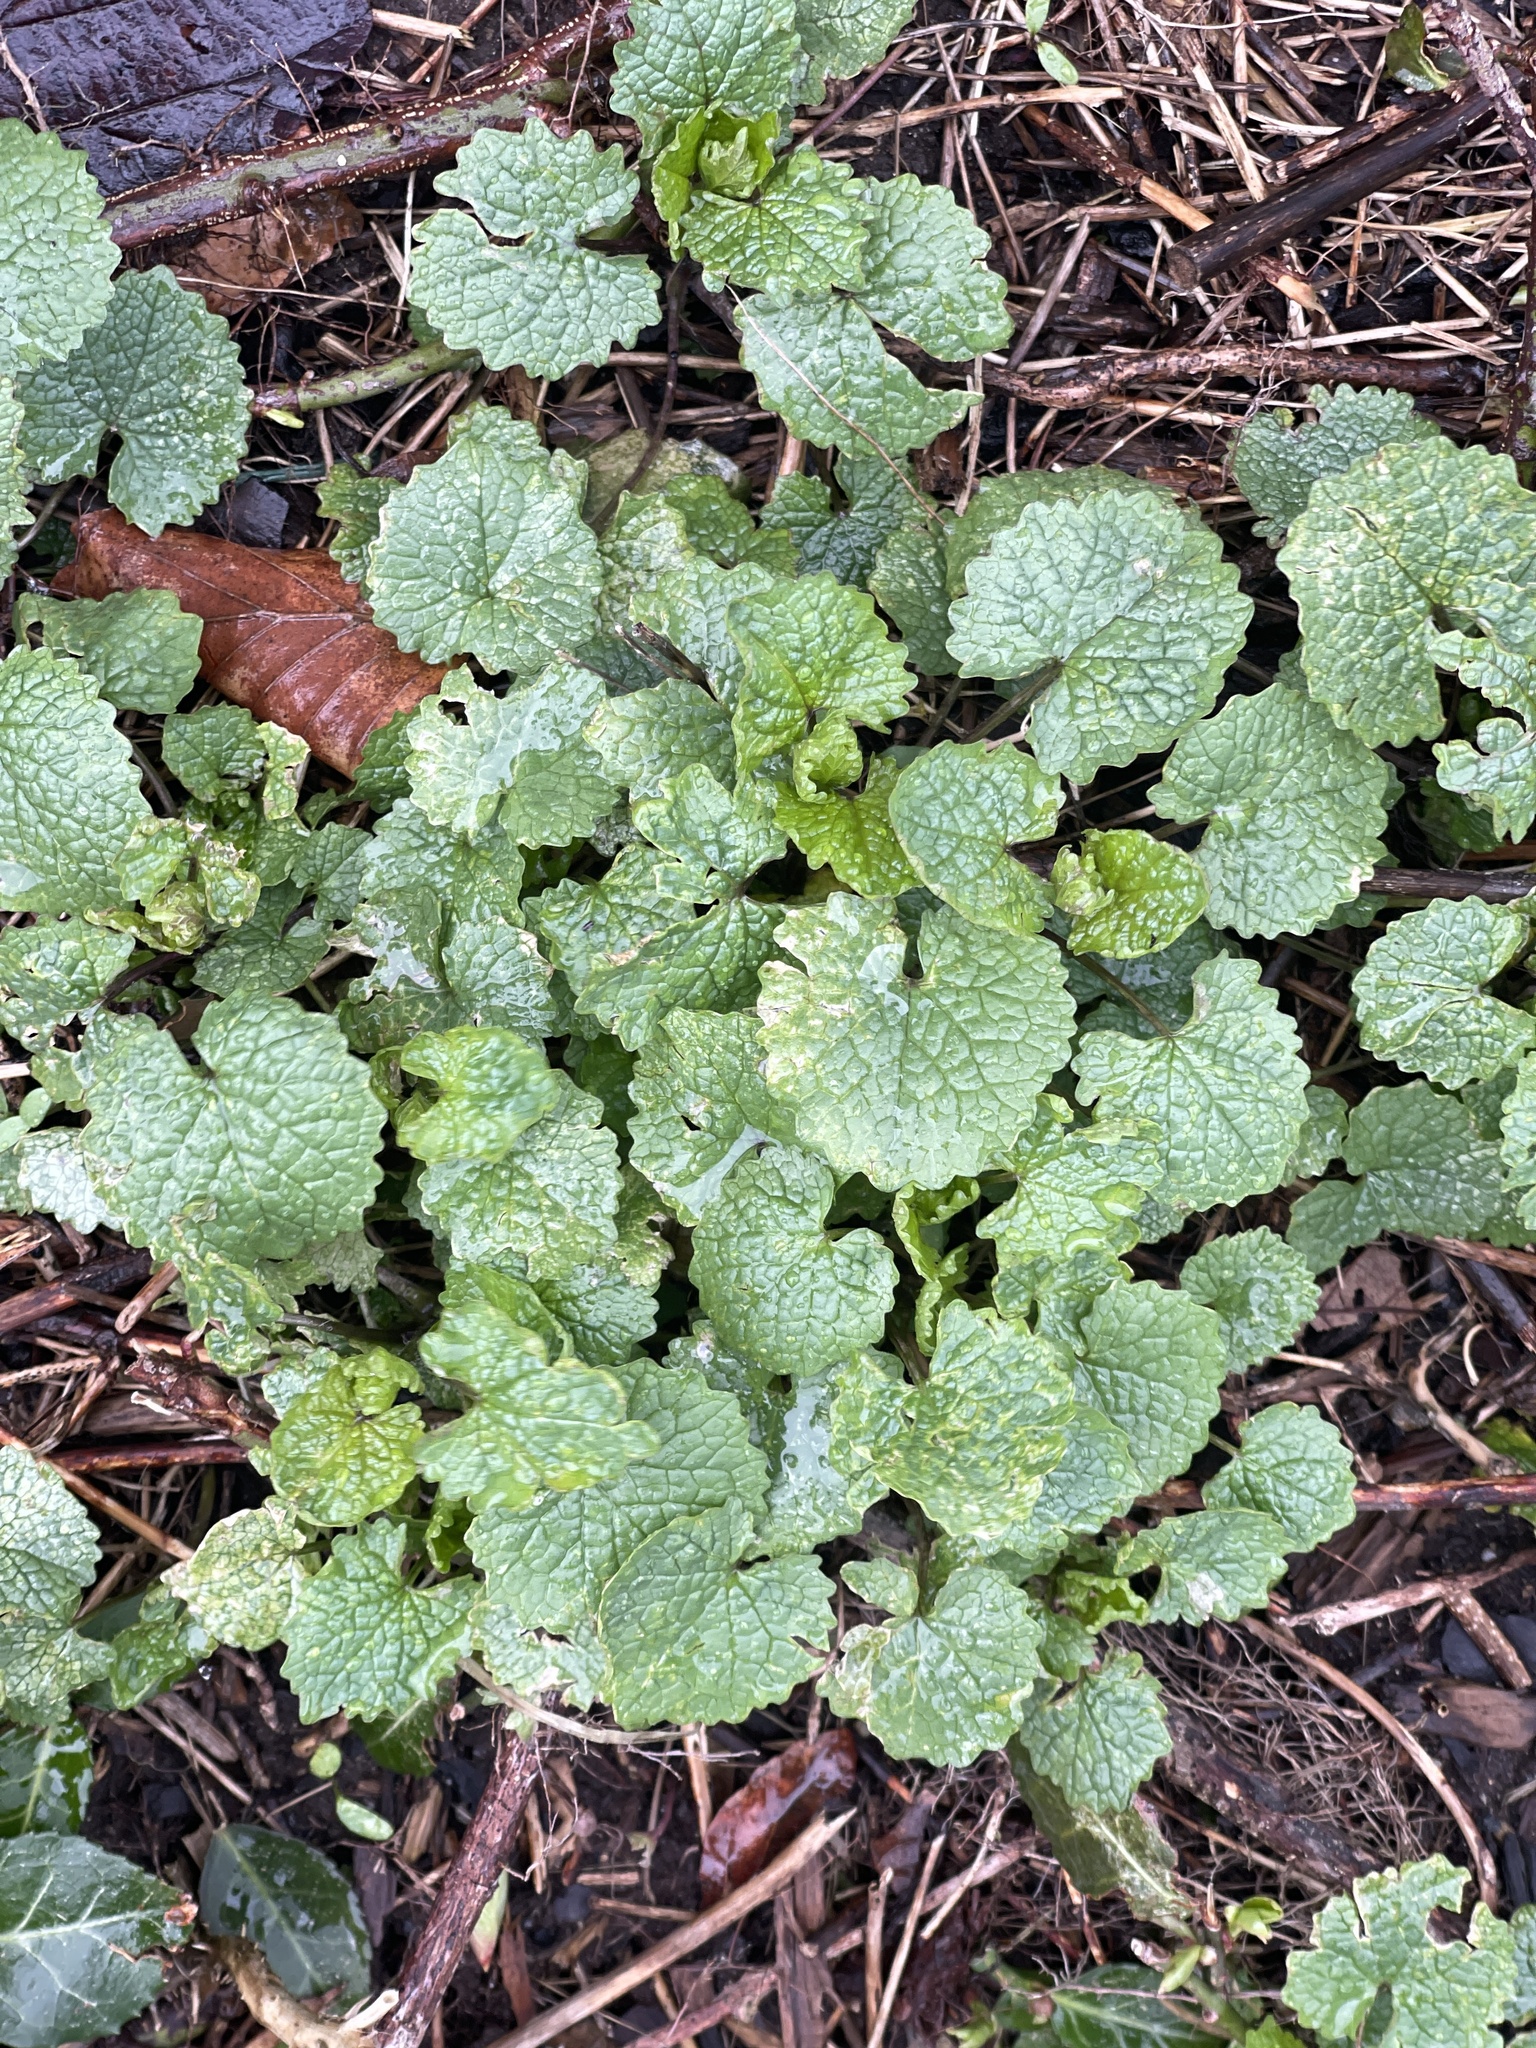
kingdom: Plantae
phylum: Tracheophyta
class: Magnoliopsida
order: Brassicales
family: Brassicaceae
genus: Alliaria
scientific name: Alliaria petiolata
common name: Garlic mustard
